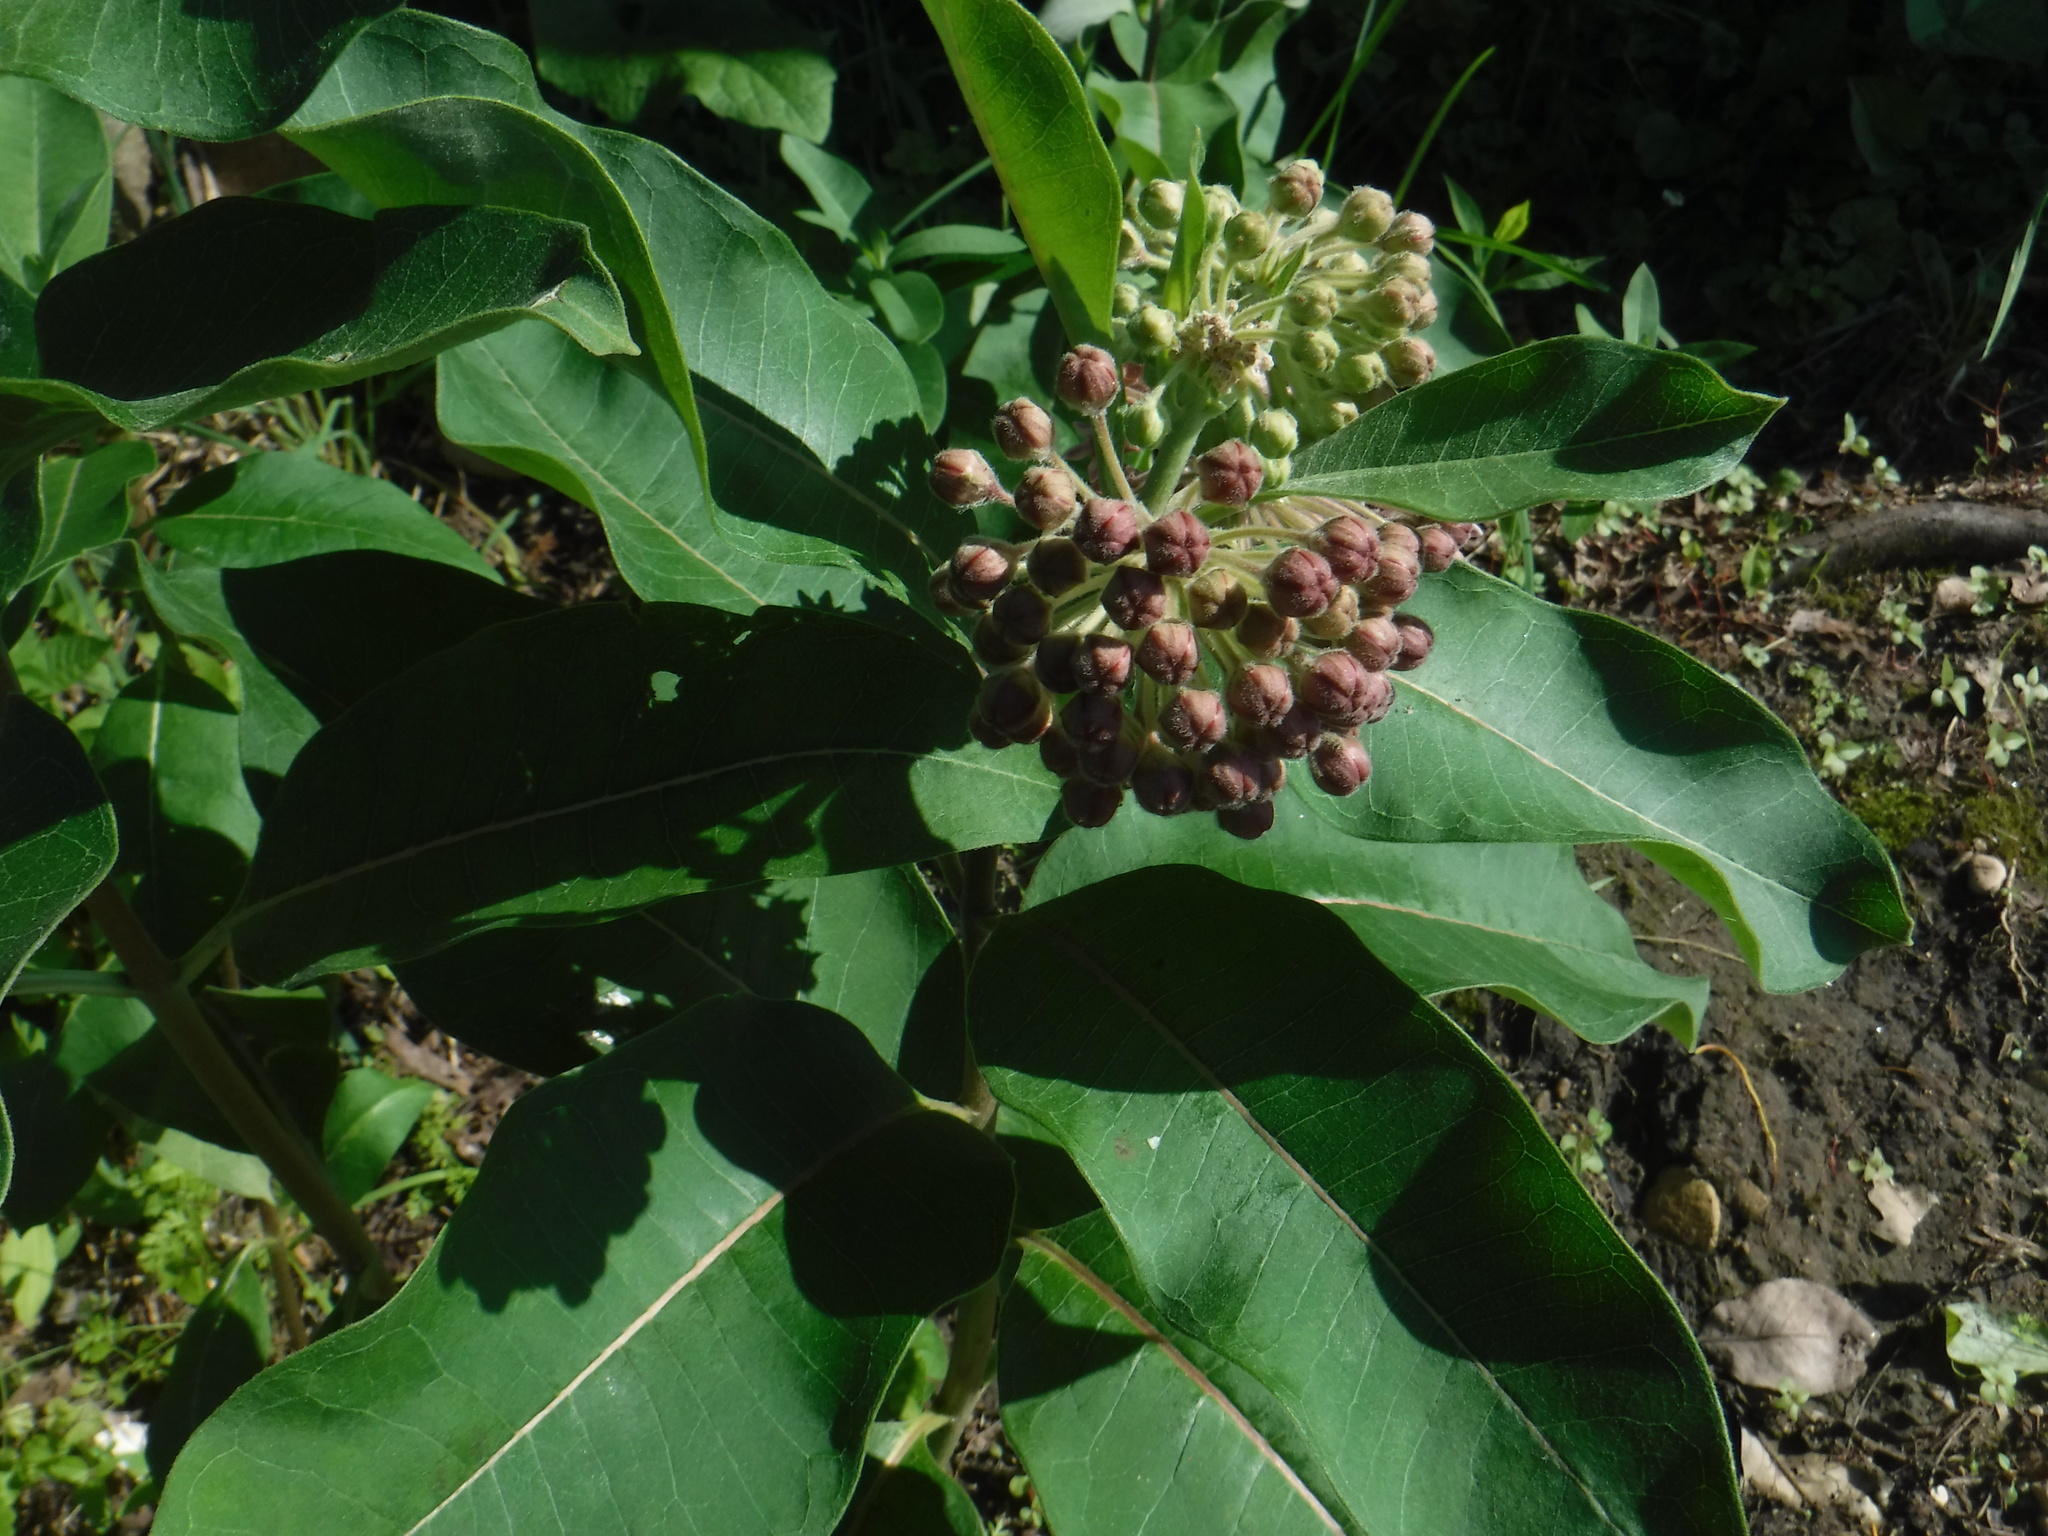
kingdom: Plantae
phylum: Tracheophyta
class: Magnoliopsida
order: Gentianales
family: Apocynaceae
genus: Asclepias
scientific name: Asclepias syriaca
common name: Common milkweed
